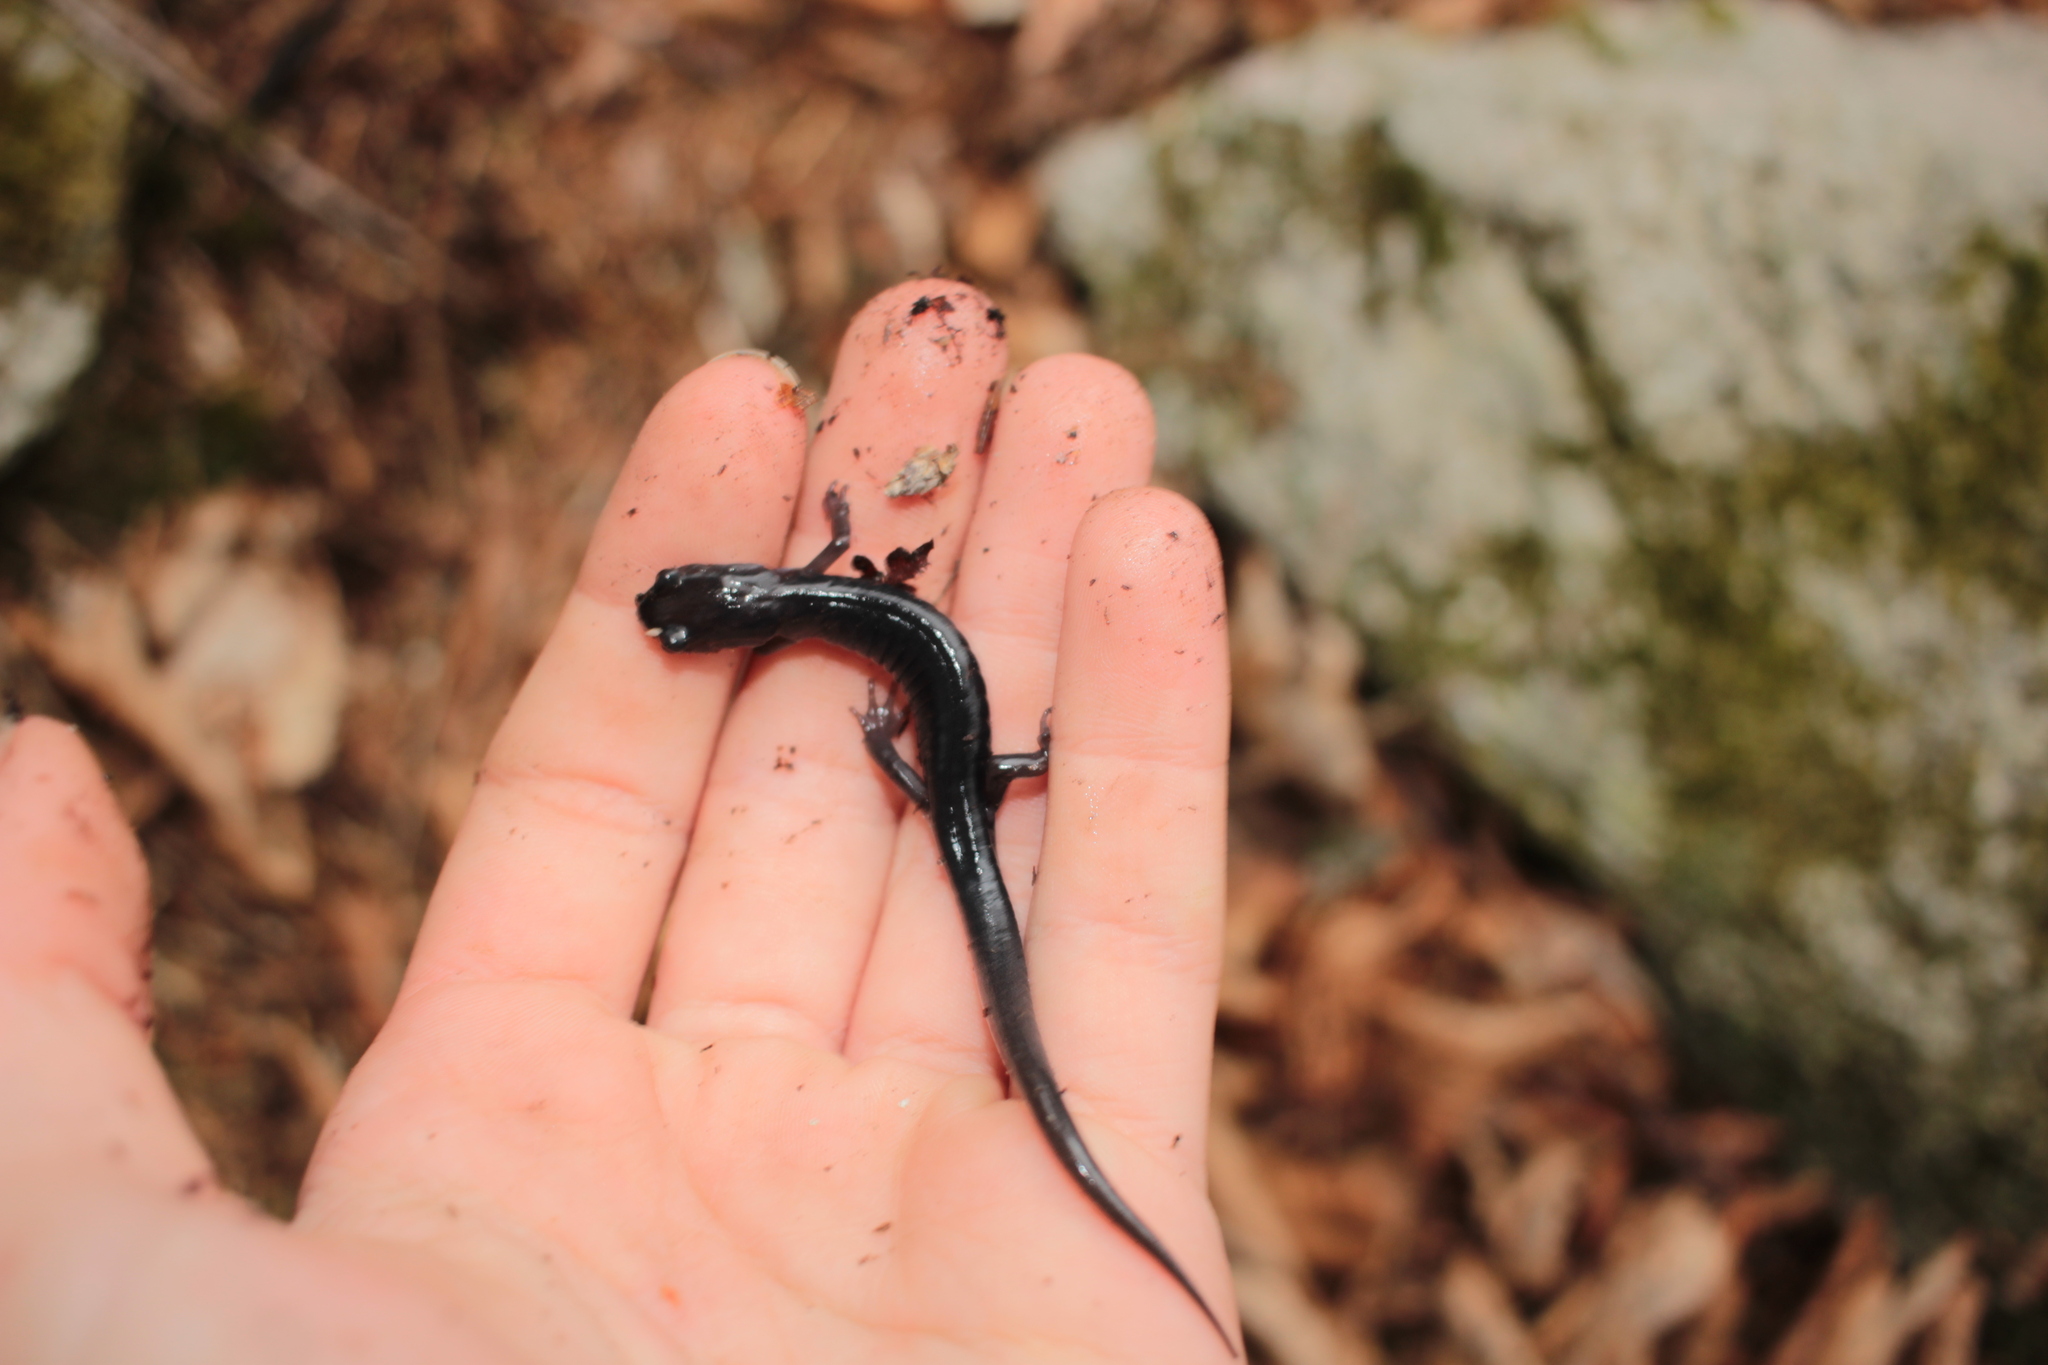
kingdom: Animalia
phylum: Chordata
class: Amphibia
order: Caudata
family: Plethodontidae
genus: Plethodon
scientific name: Plethodon montanus
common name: Northern gray-cheeked salamander
